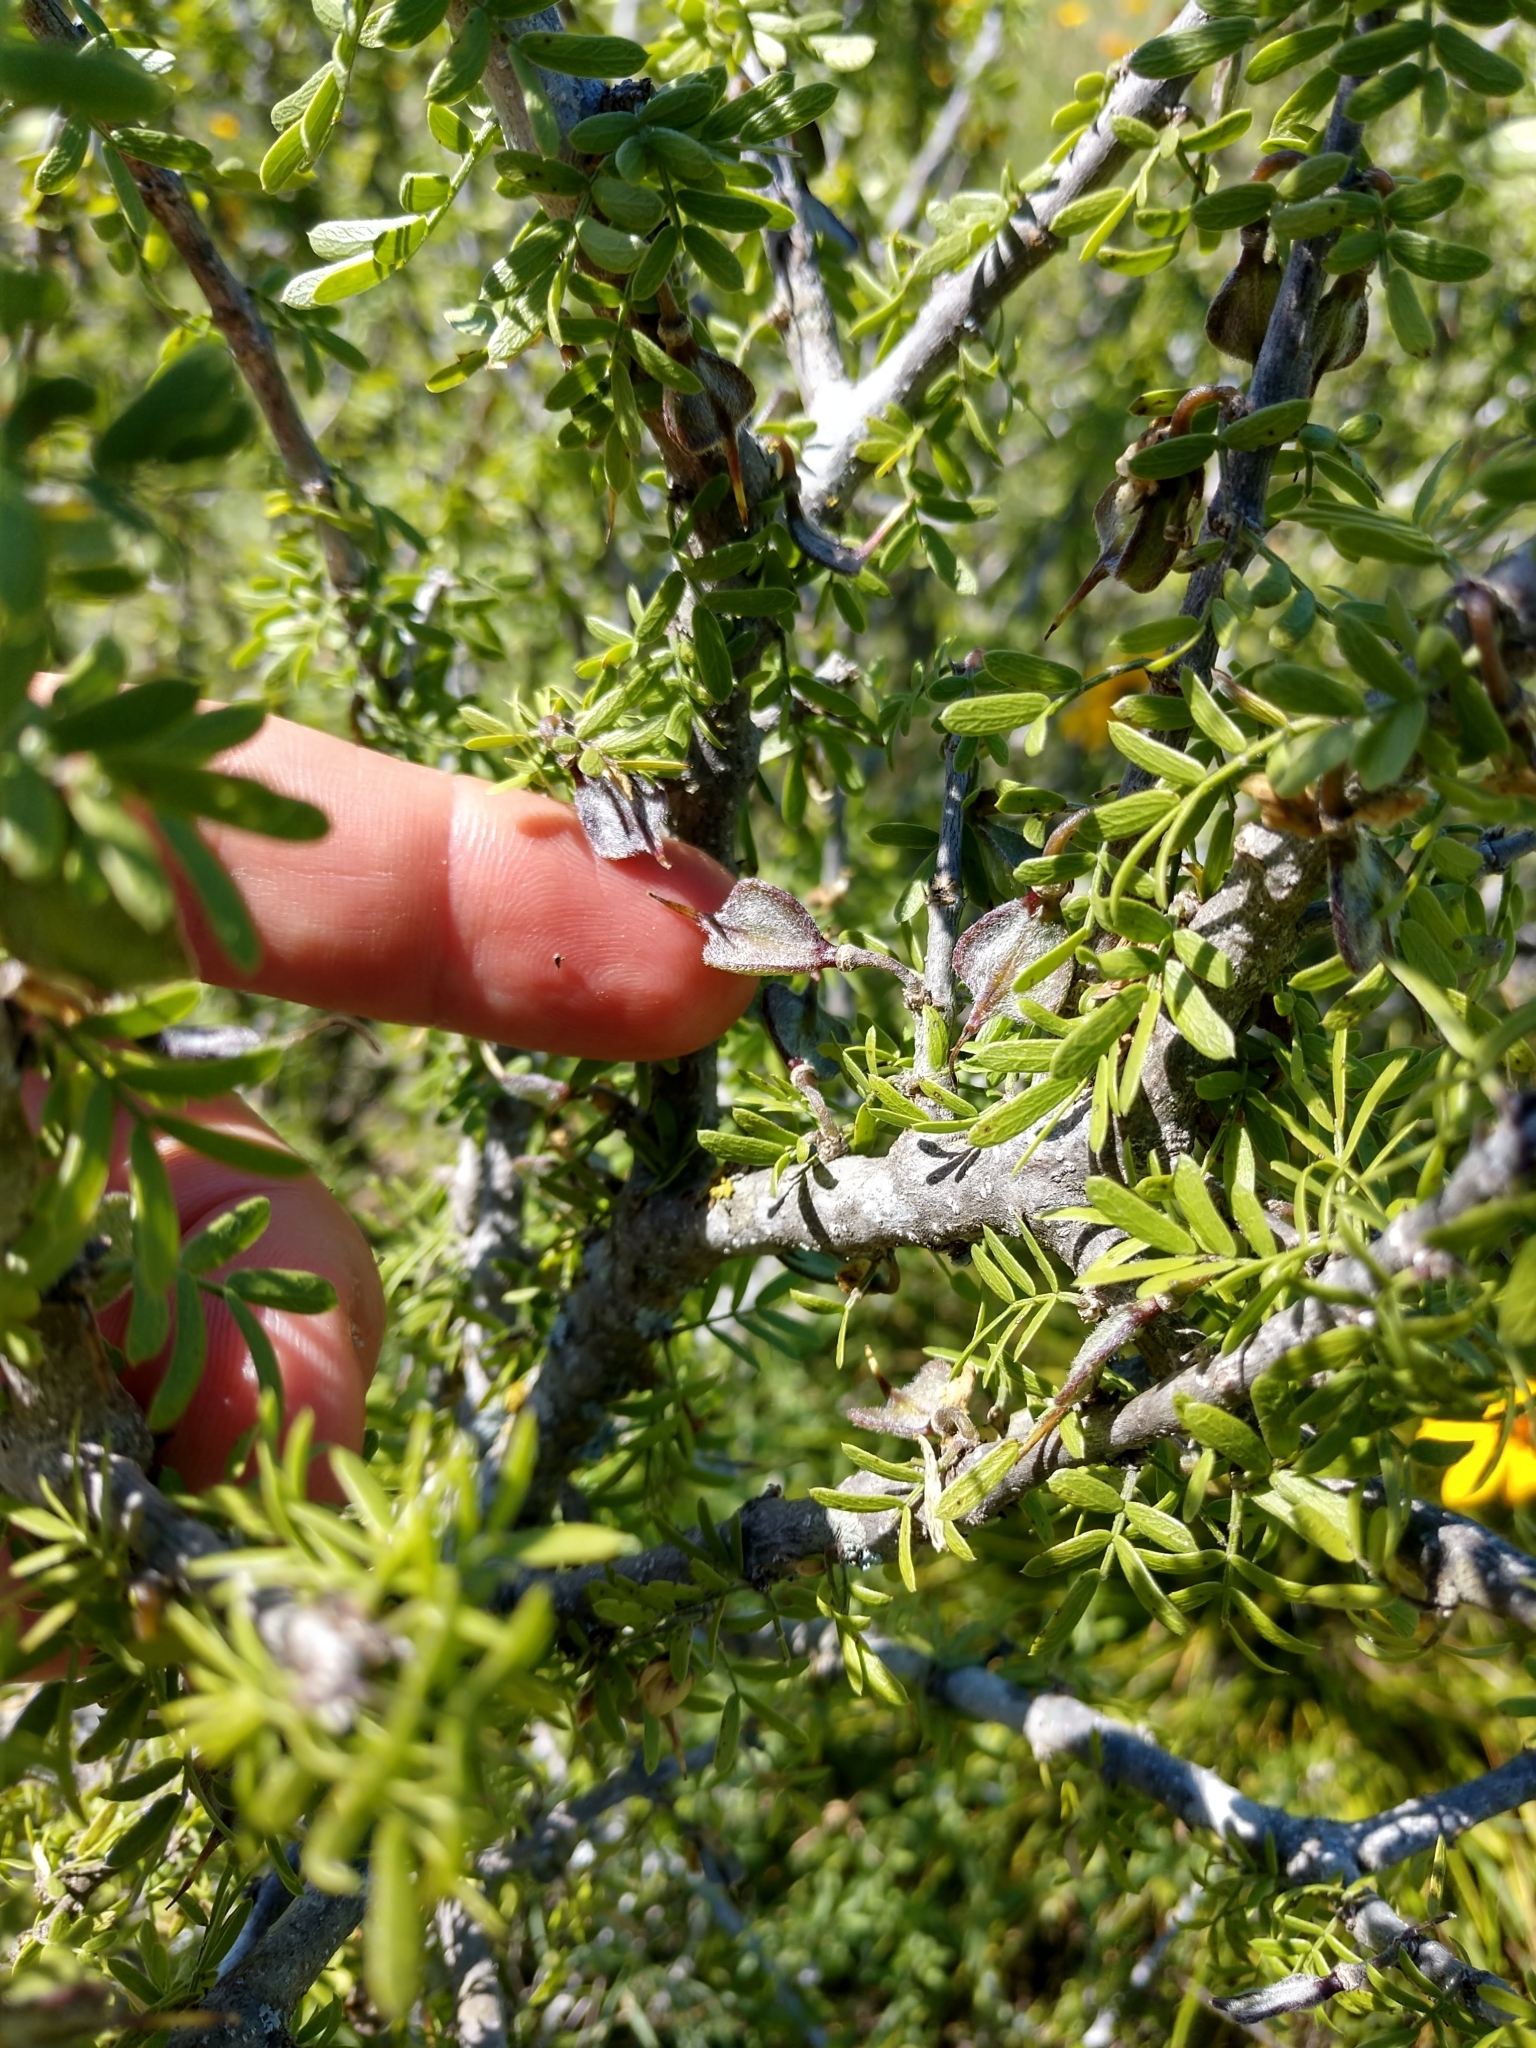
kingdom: Plantae
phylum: Tracheophyta
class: Magnoliopsida
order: Zygophyllales
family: Zygophyllaceae
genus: Porlieria
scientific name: Porlieria angustifolia
